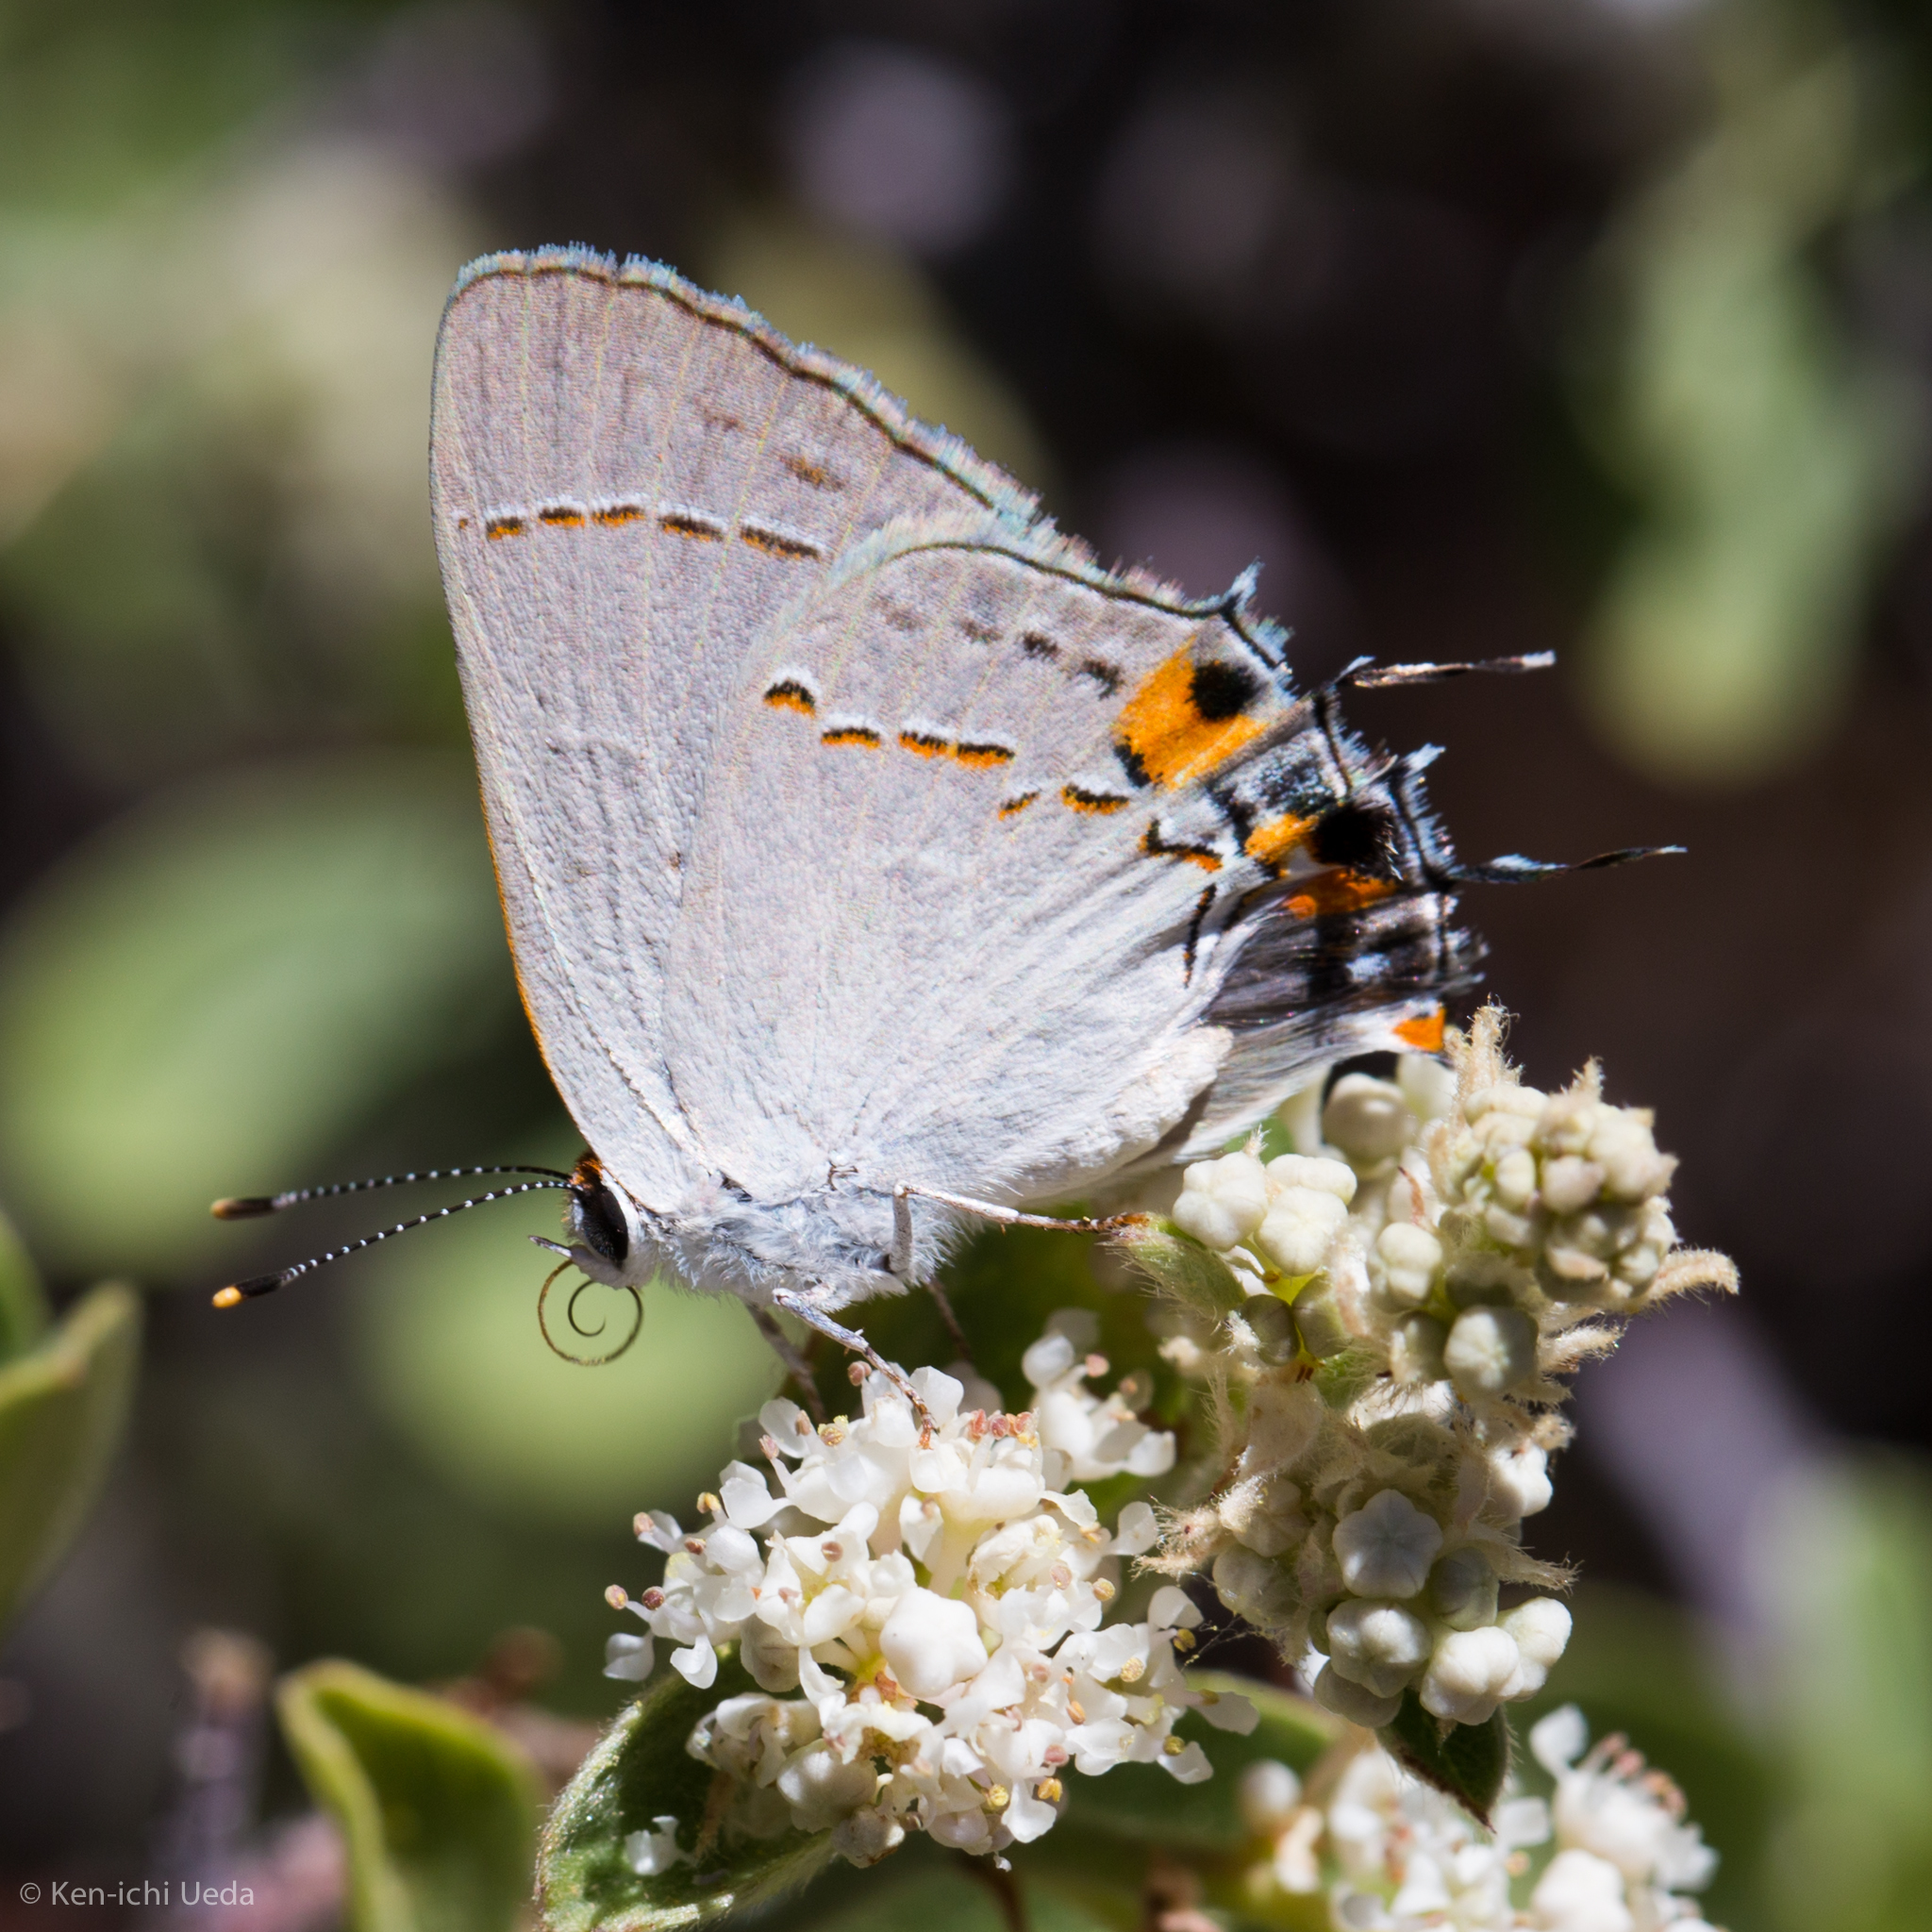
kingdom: Animalia
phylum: Arthropoda
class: Insecta
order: Lepidoptera
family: Lycaenidae
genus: Strymon
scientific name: Strymon melinus
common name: Gray hairstreak
